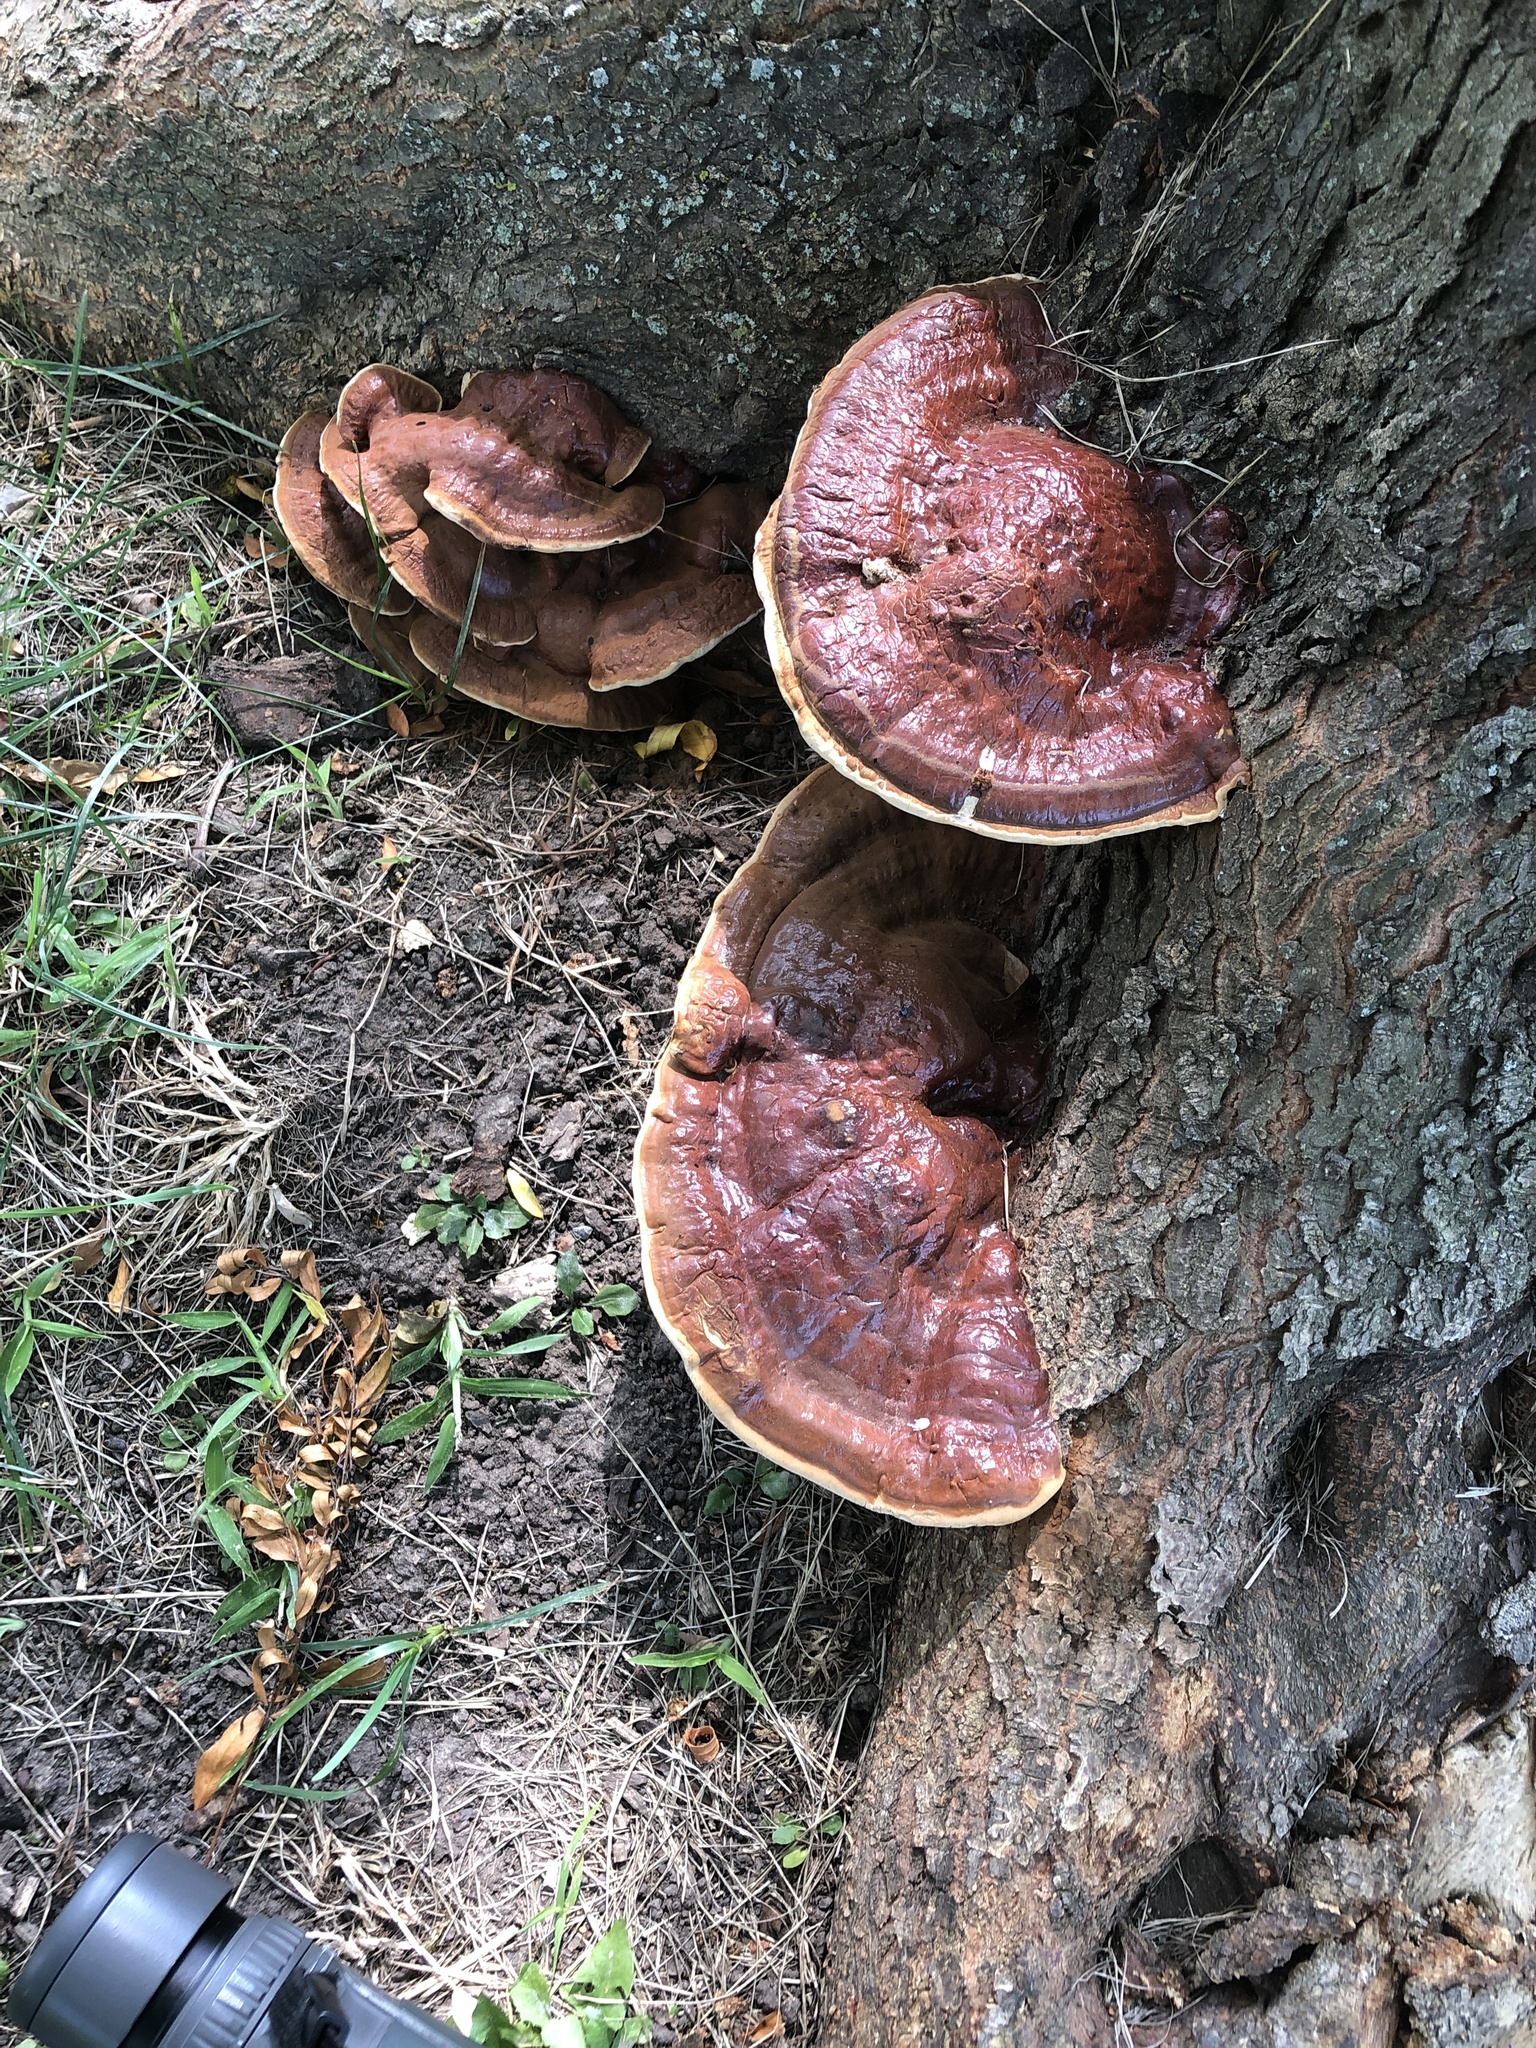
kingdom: Fungi
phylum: Basidiomycota
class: Agaricomycetes
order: Polyporales
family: Polyporaceae
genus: Ganoderma
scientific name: Ganoderma resinaceum
